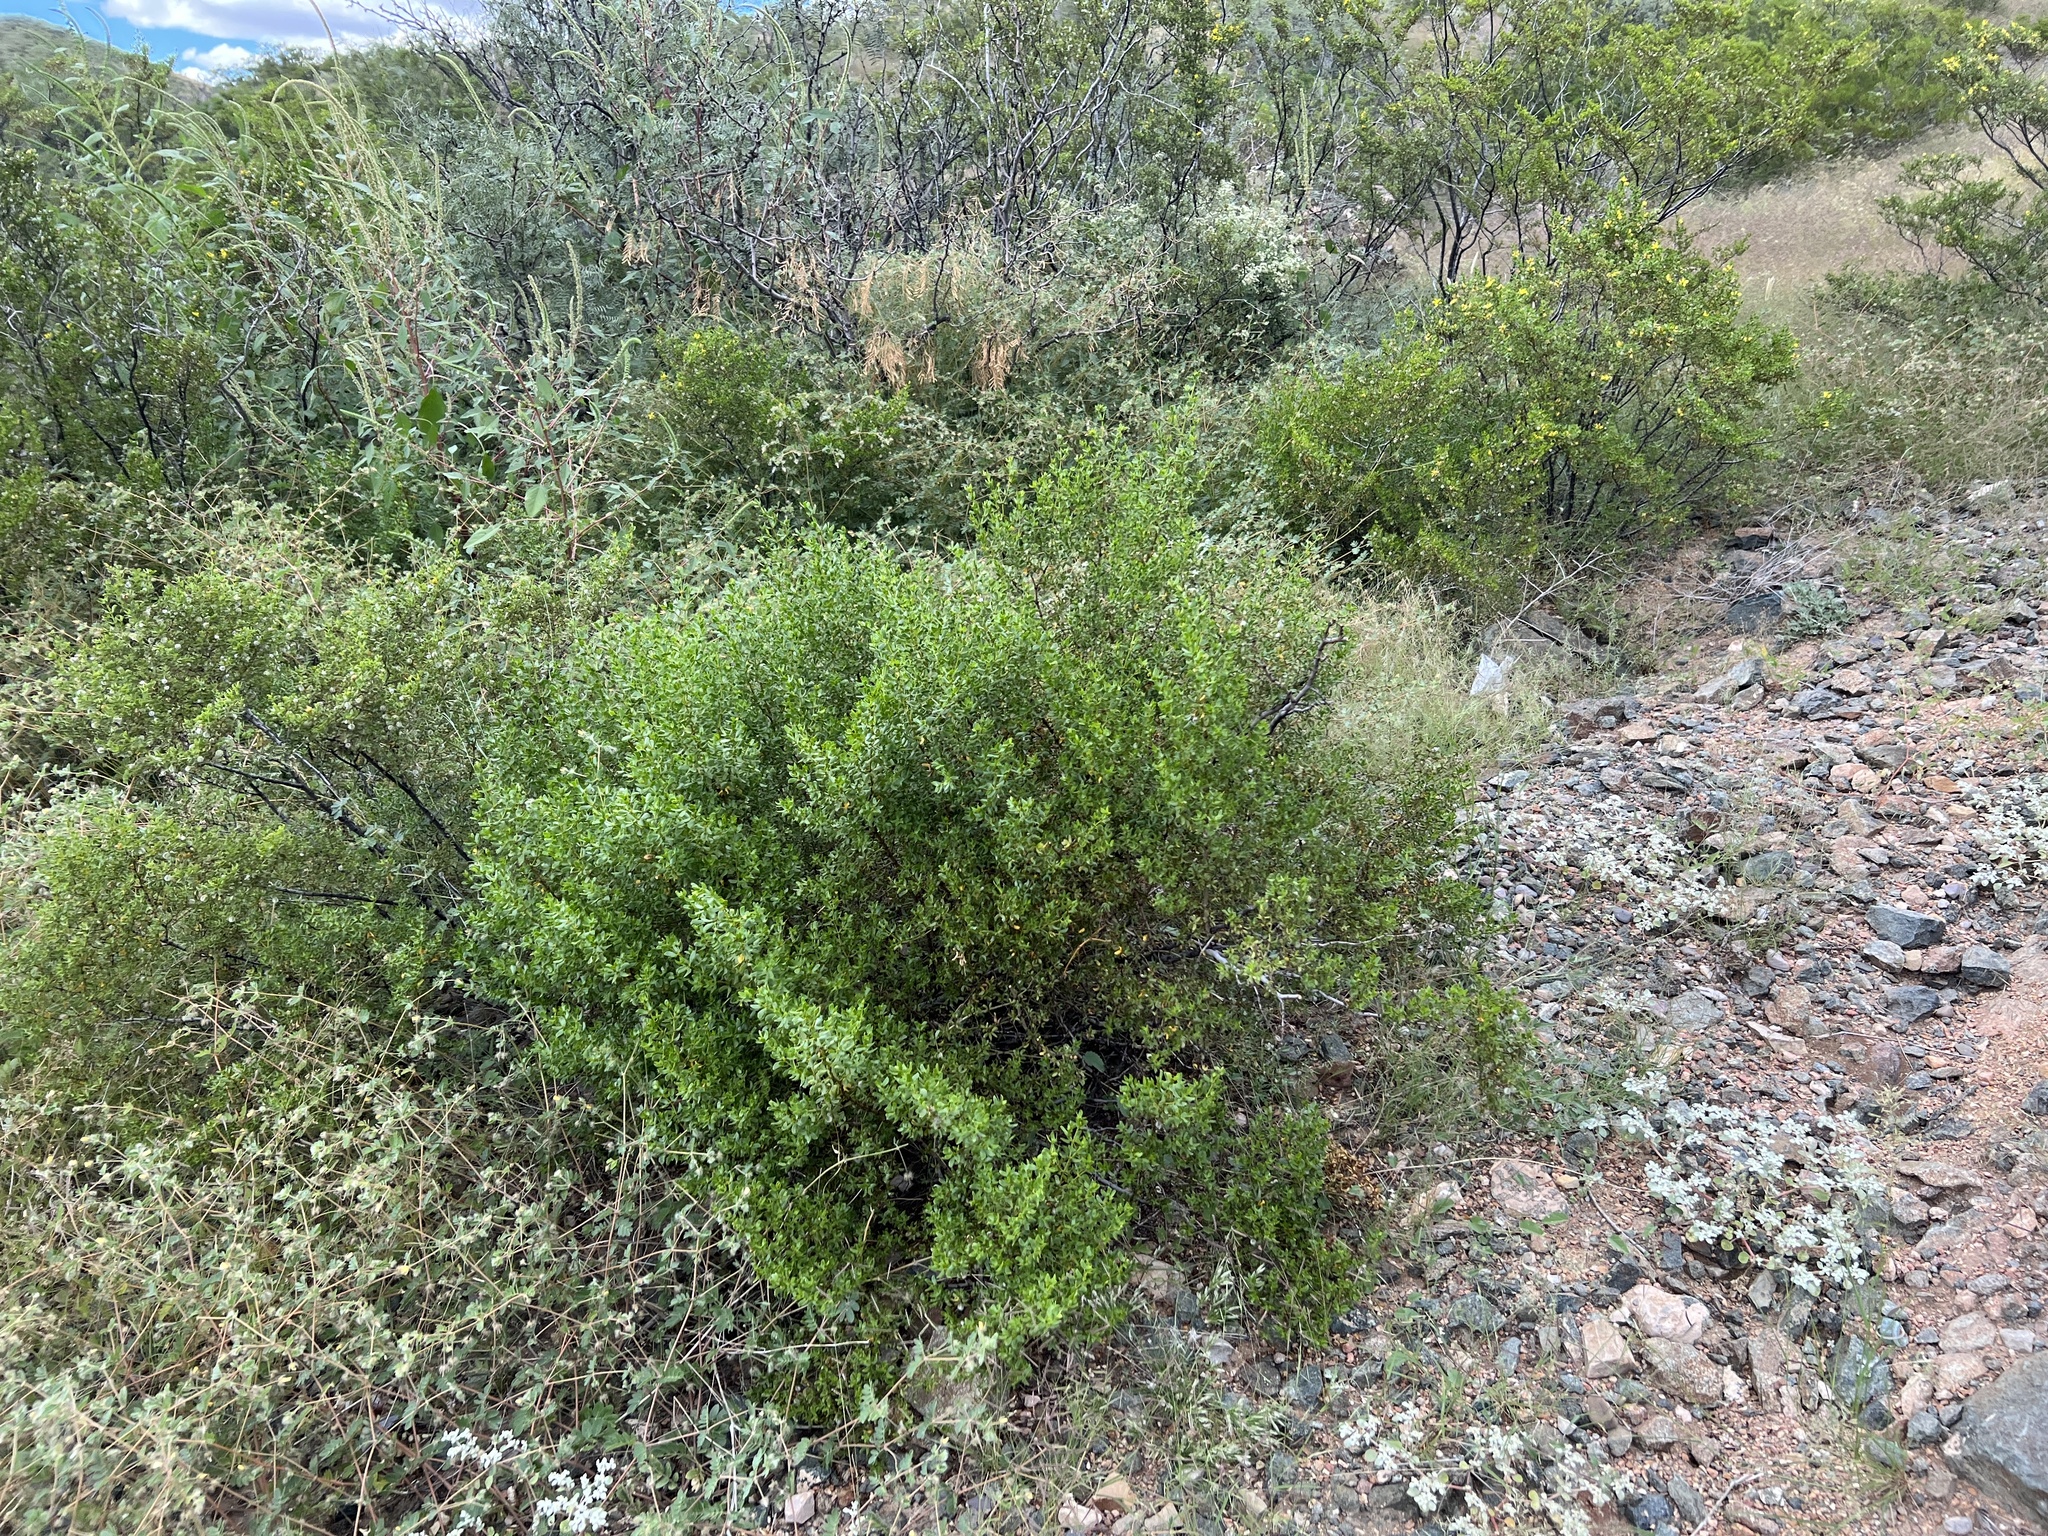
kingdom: Plantae
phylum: Tracheophyta
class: Magnoliopsida
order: Zygophyllales
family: Zygophyllaceae
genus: Larrea
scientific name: Larrea tridentata
